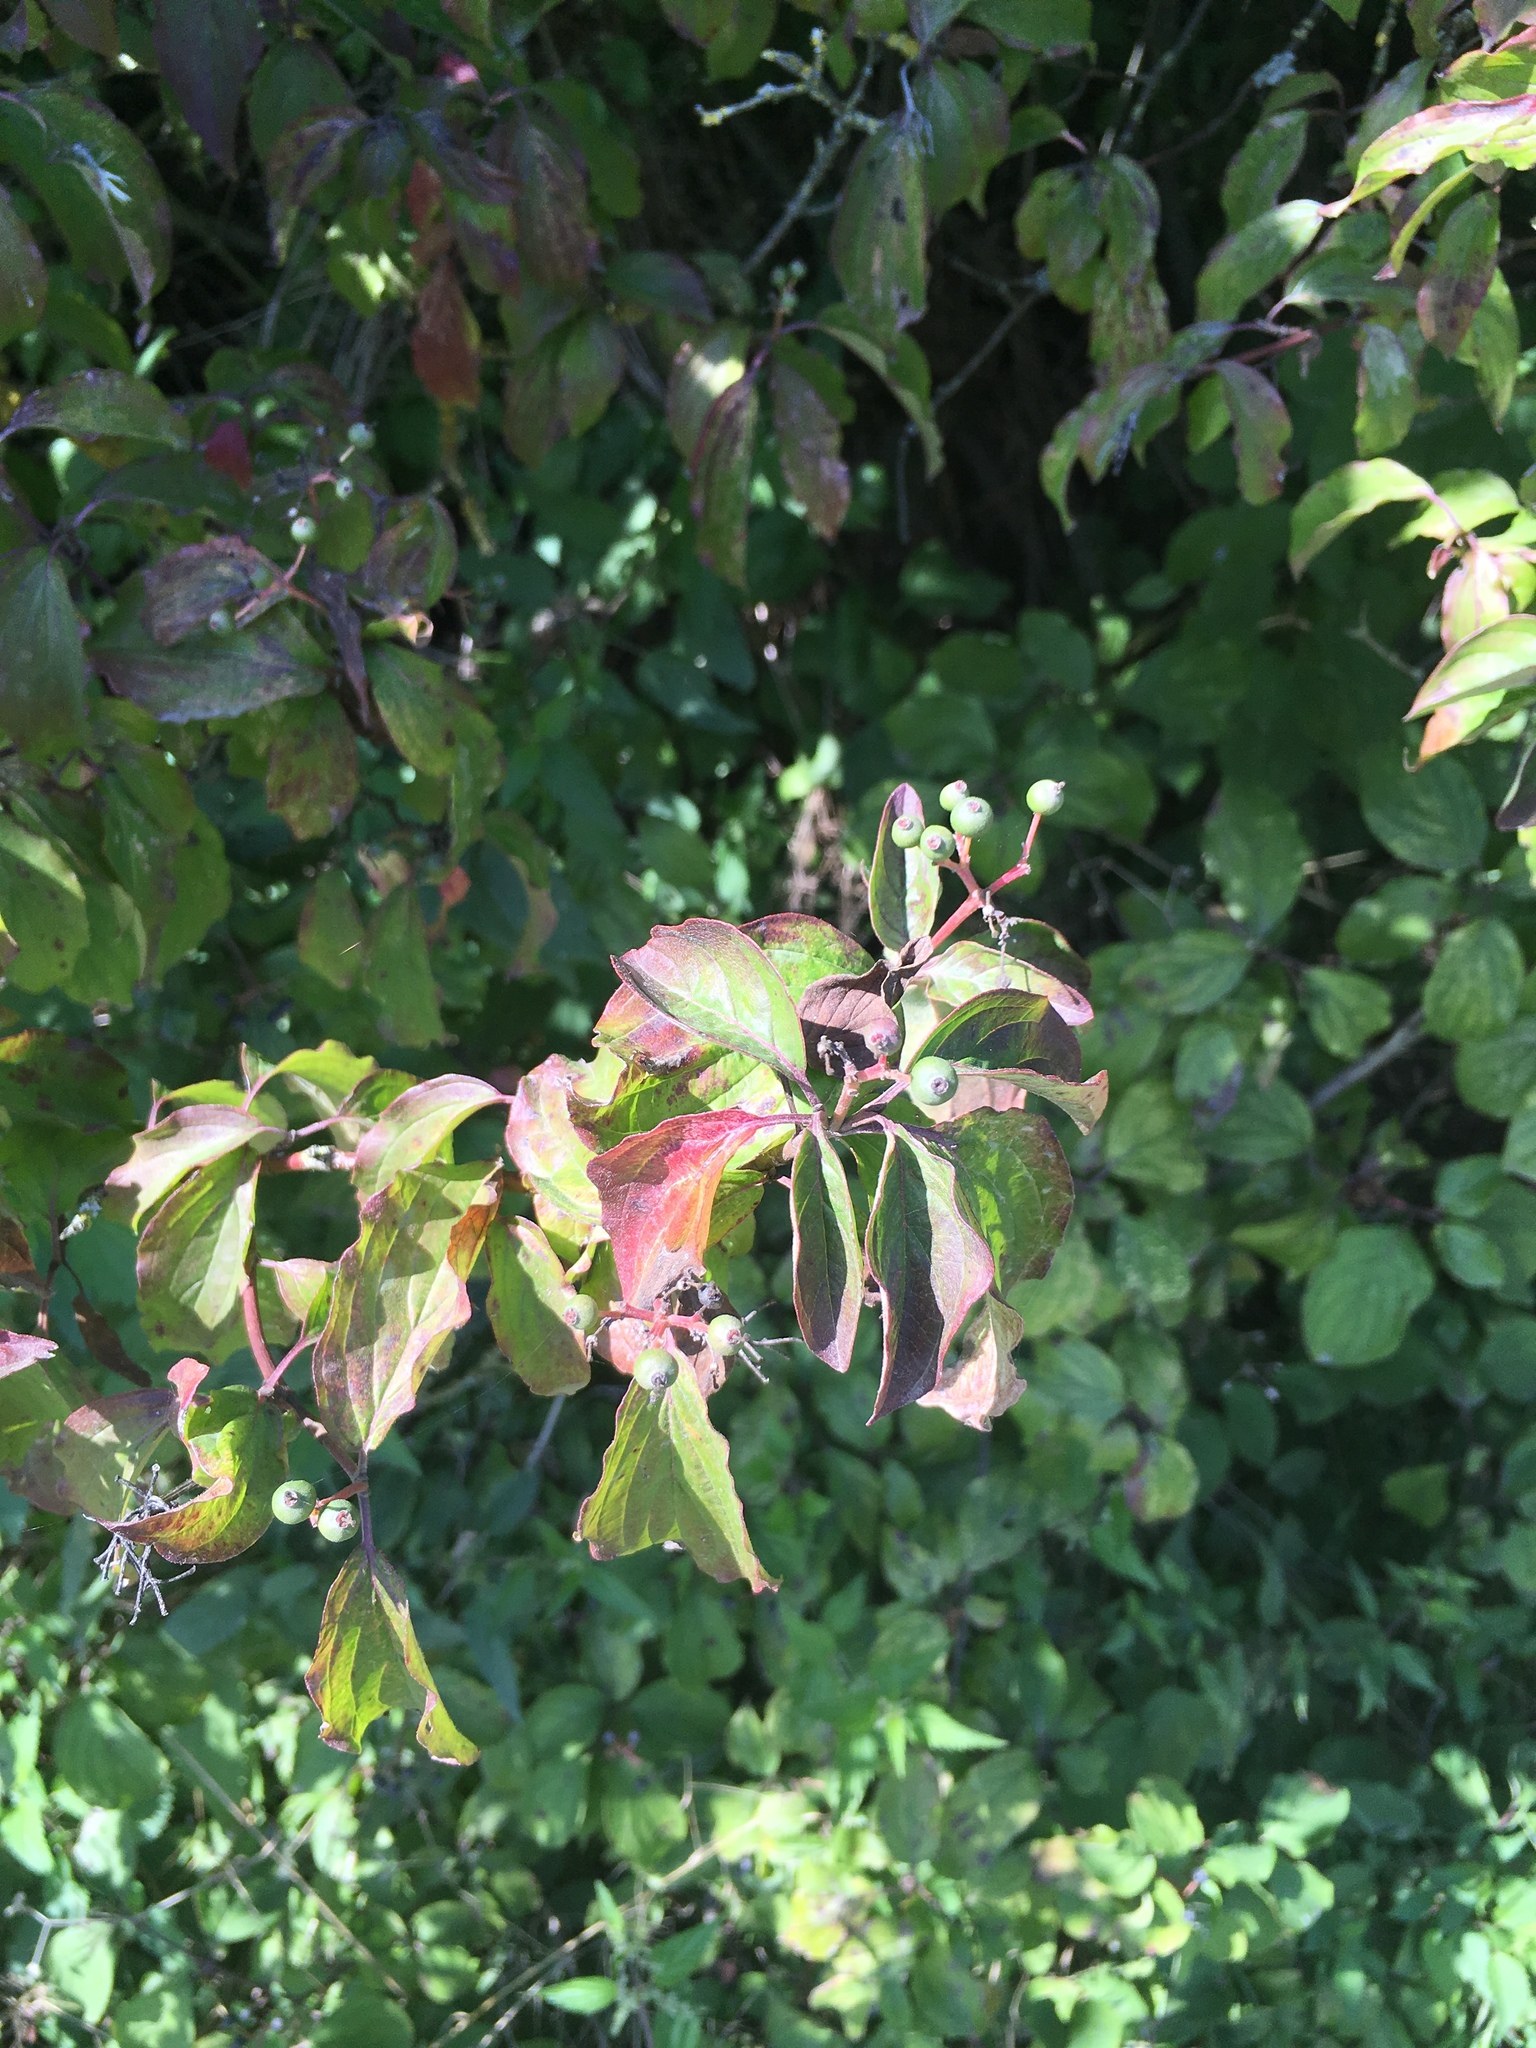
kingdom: Plantae
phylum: Tracheophyta
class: Magnoliopsida
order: Cornales
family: Cornaceae
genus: Cornus
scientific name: Cornus sanguinea
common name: Dogwood
